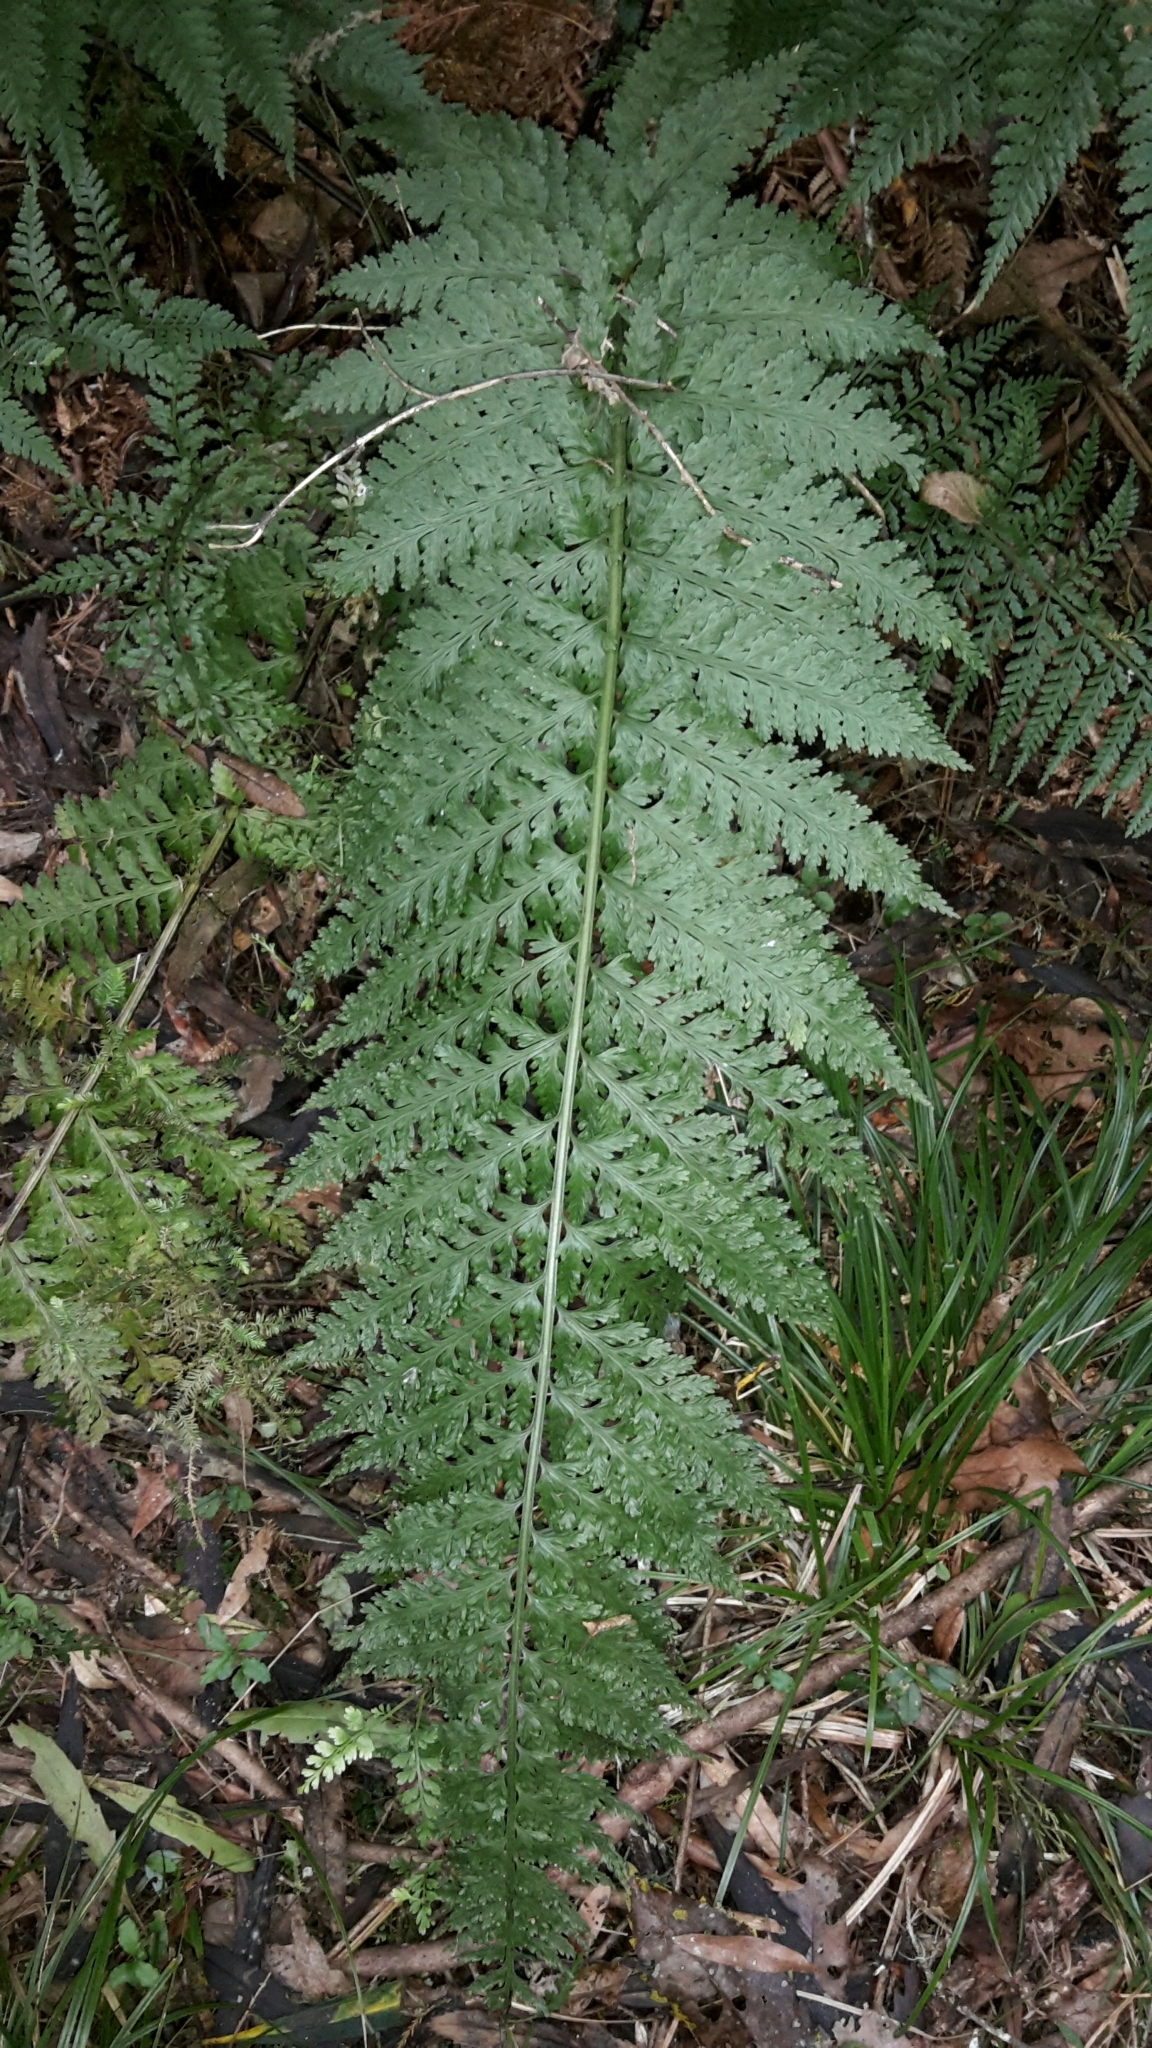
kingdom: Plantae
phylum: Tracheophyta
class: Polypodiopsida
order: Polypodiales
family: Aspleniaceae
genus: Asplenium
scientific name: Asplenium bulbiferum
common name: Mother fern
